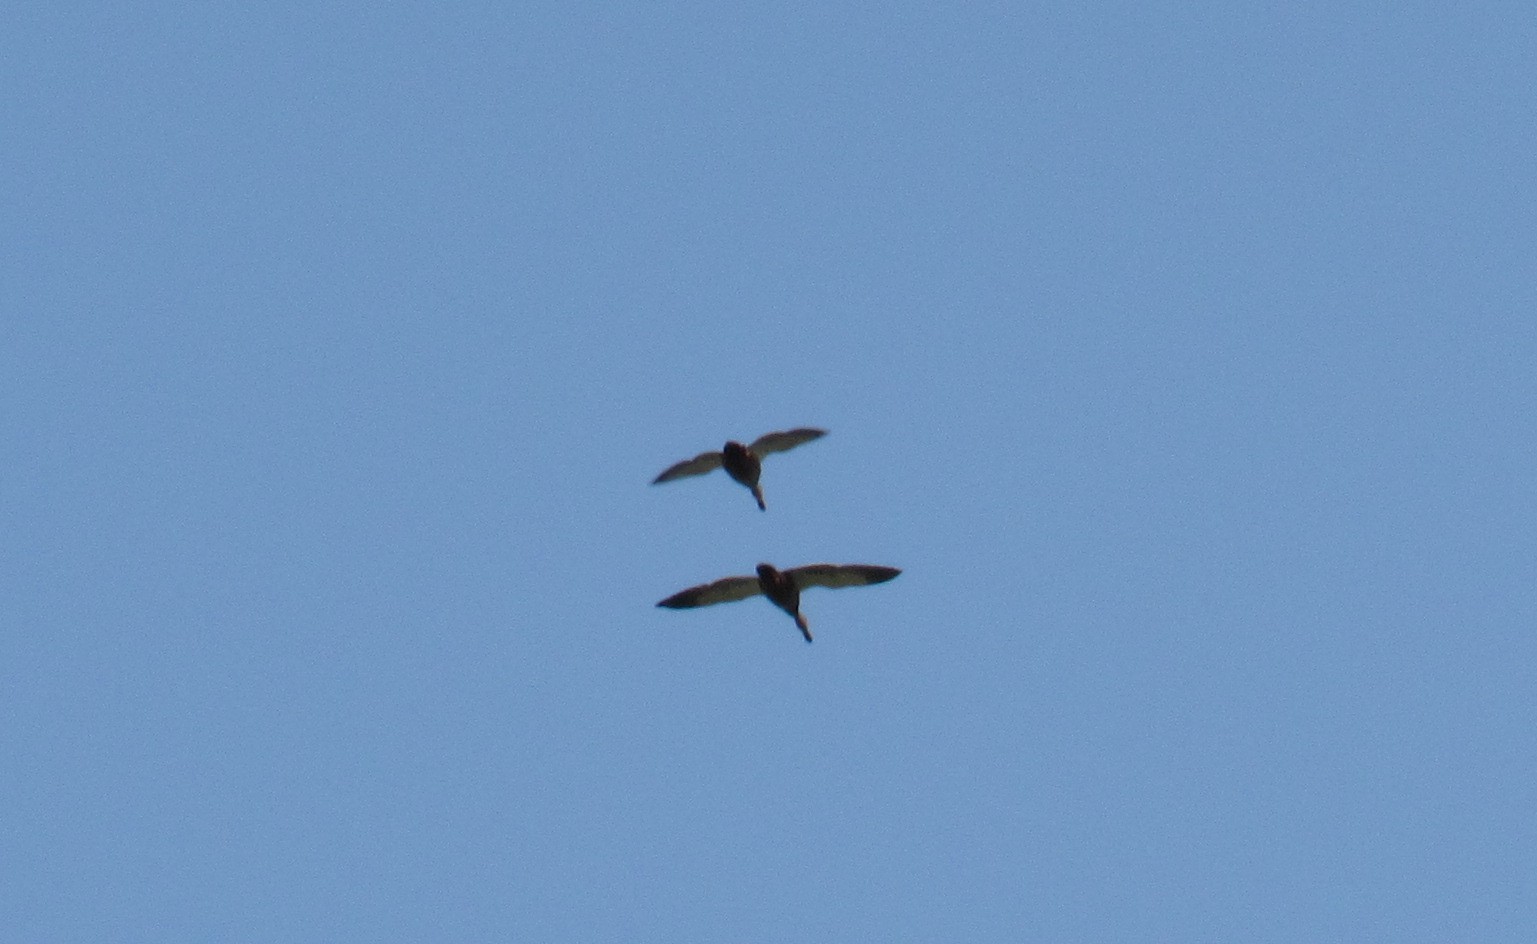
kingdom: Animalia
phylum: Chordata
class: Aves
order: Anseriformes
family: Anatidae
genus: Anas
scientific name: Anas diazi
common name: Mexican duck
